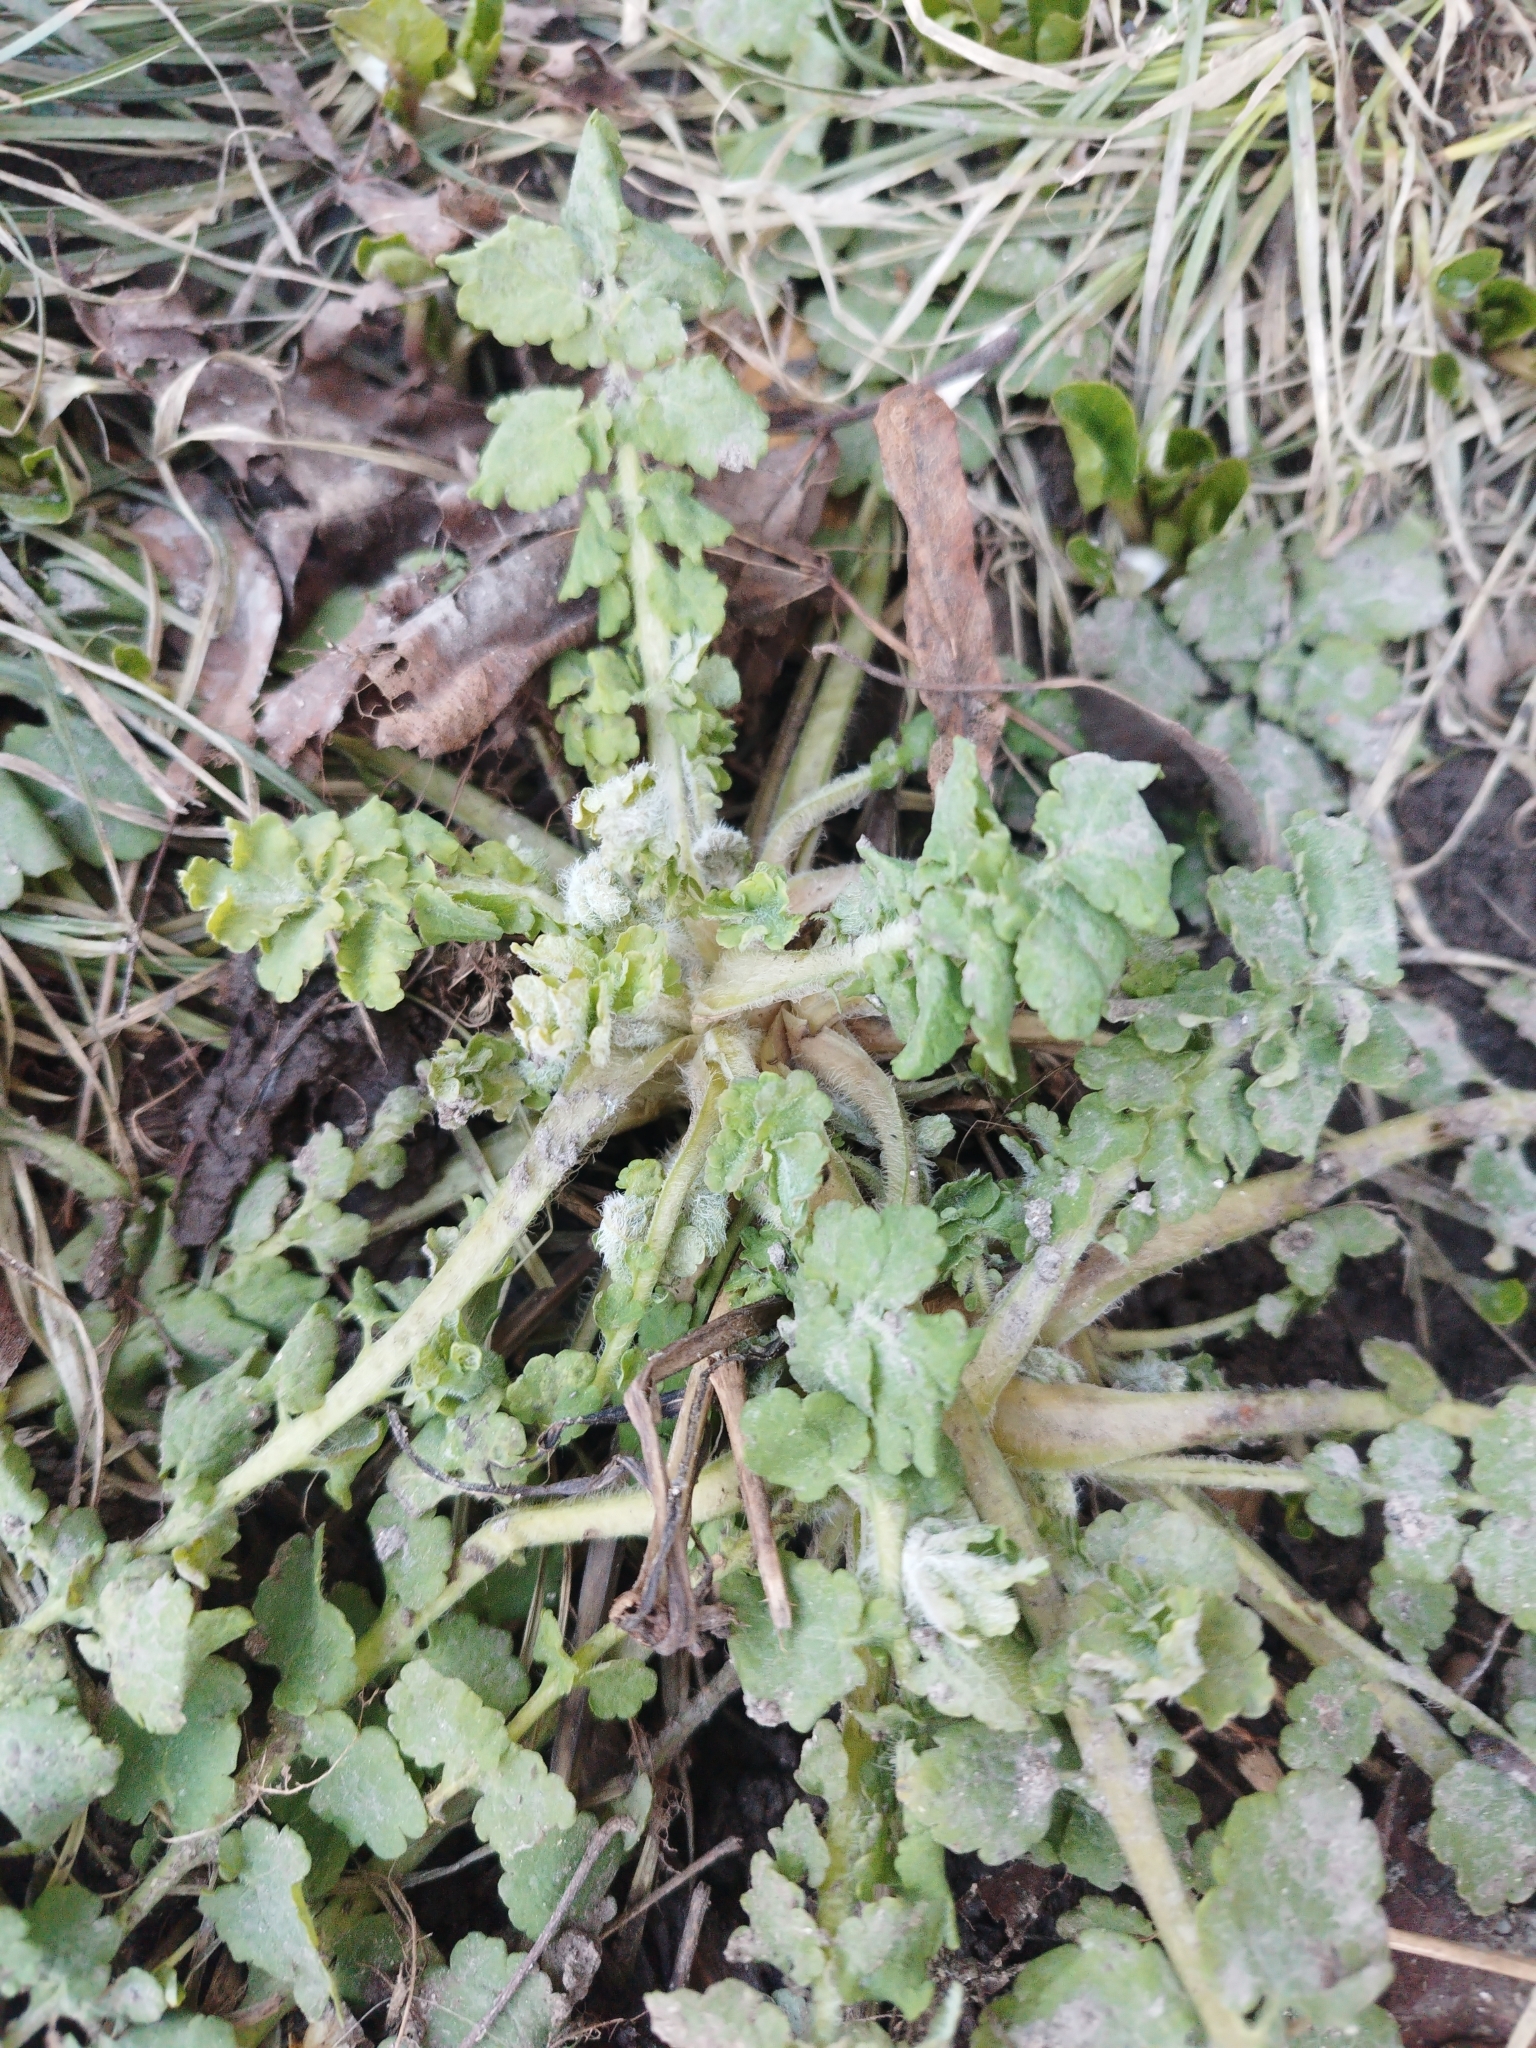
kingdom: Plantae
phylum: Tracheophyta
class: Magnoliopsida
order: Ranunculales
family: Papaveraceae
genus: Chelidonium
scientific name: Chelidonium majus
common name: Greater celandine
